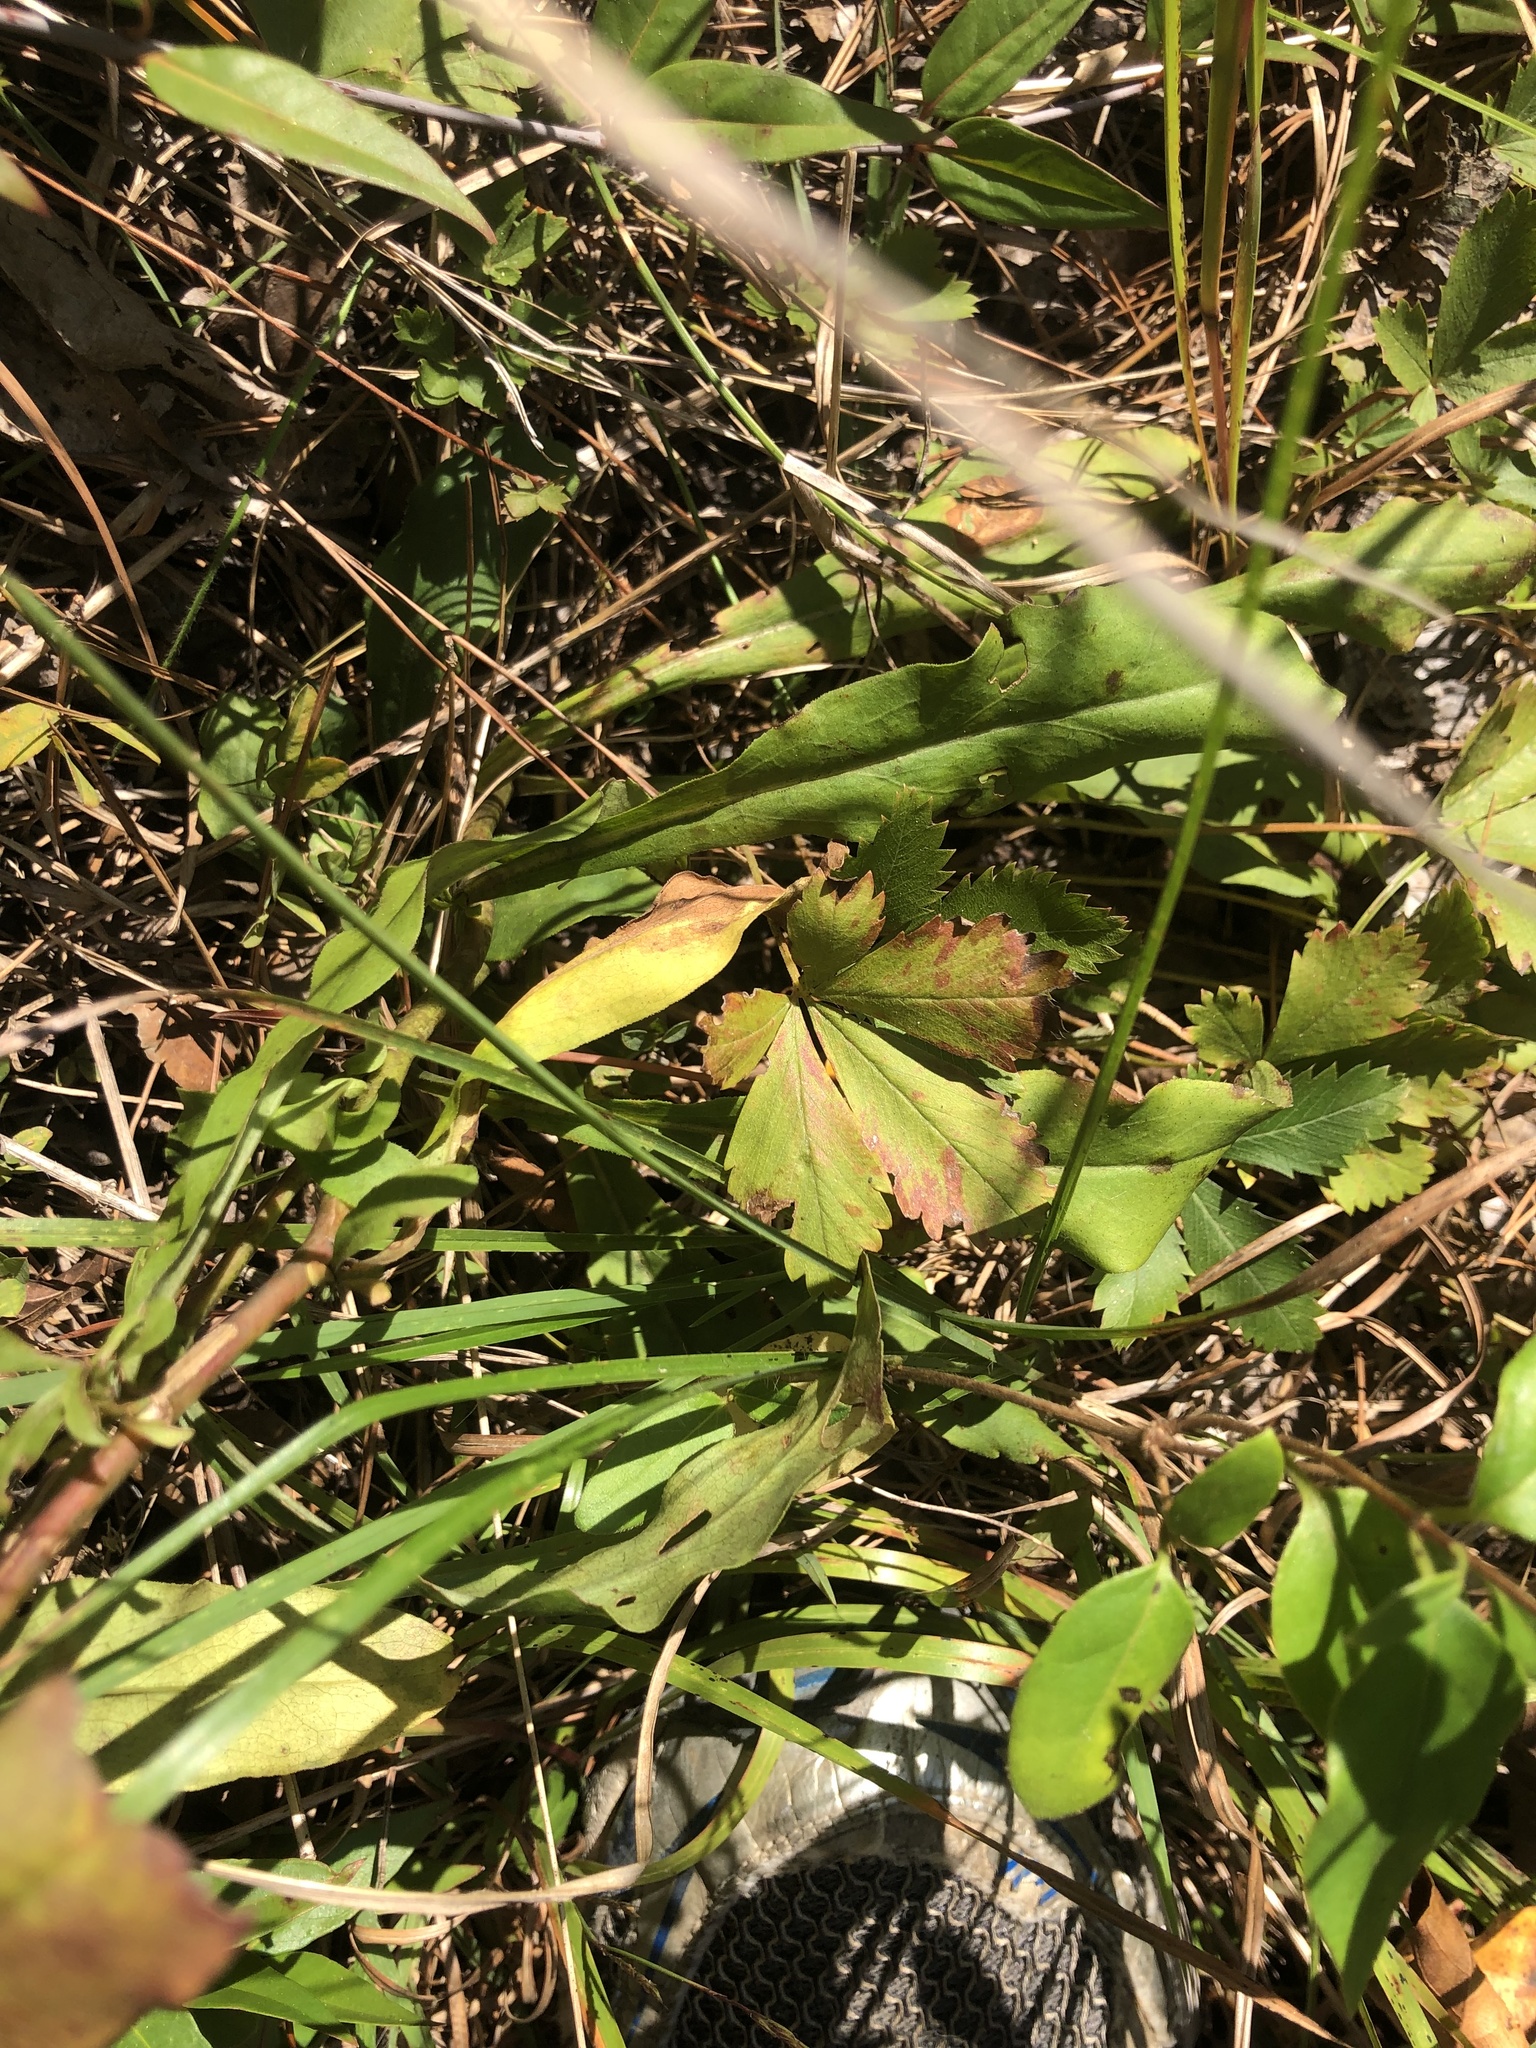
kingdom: Plantae
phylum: Tracheophyta
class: Magnoliopsida
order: Asterales
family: Asteraceae
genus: Solidago
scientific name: Solidago erecta
